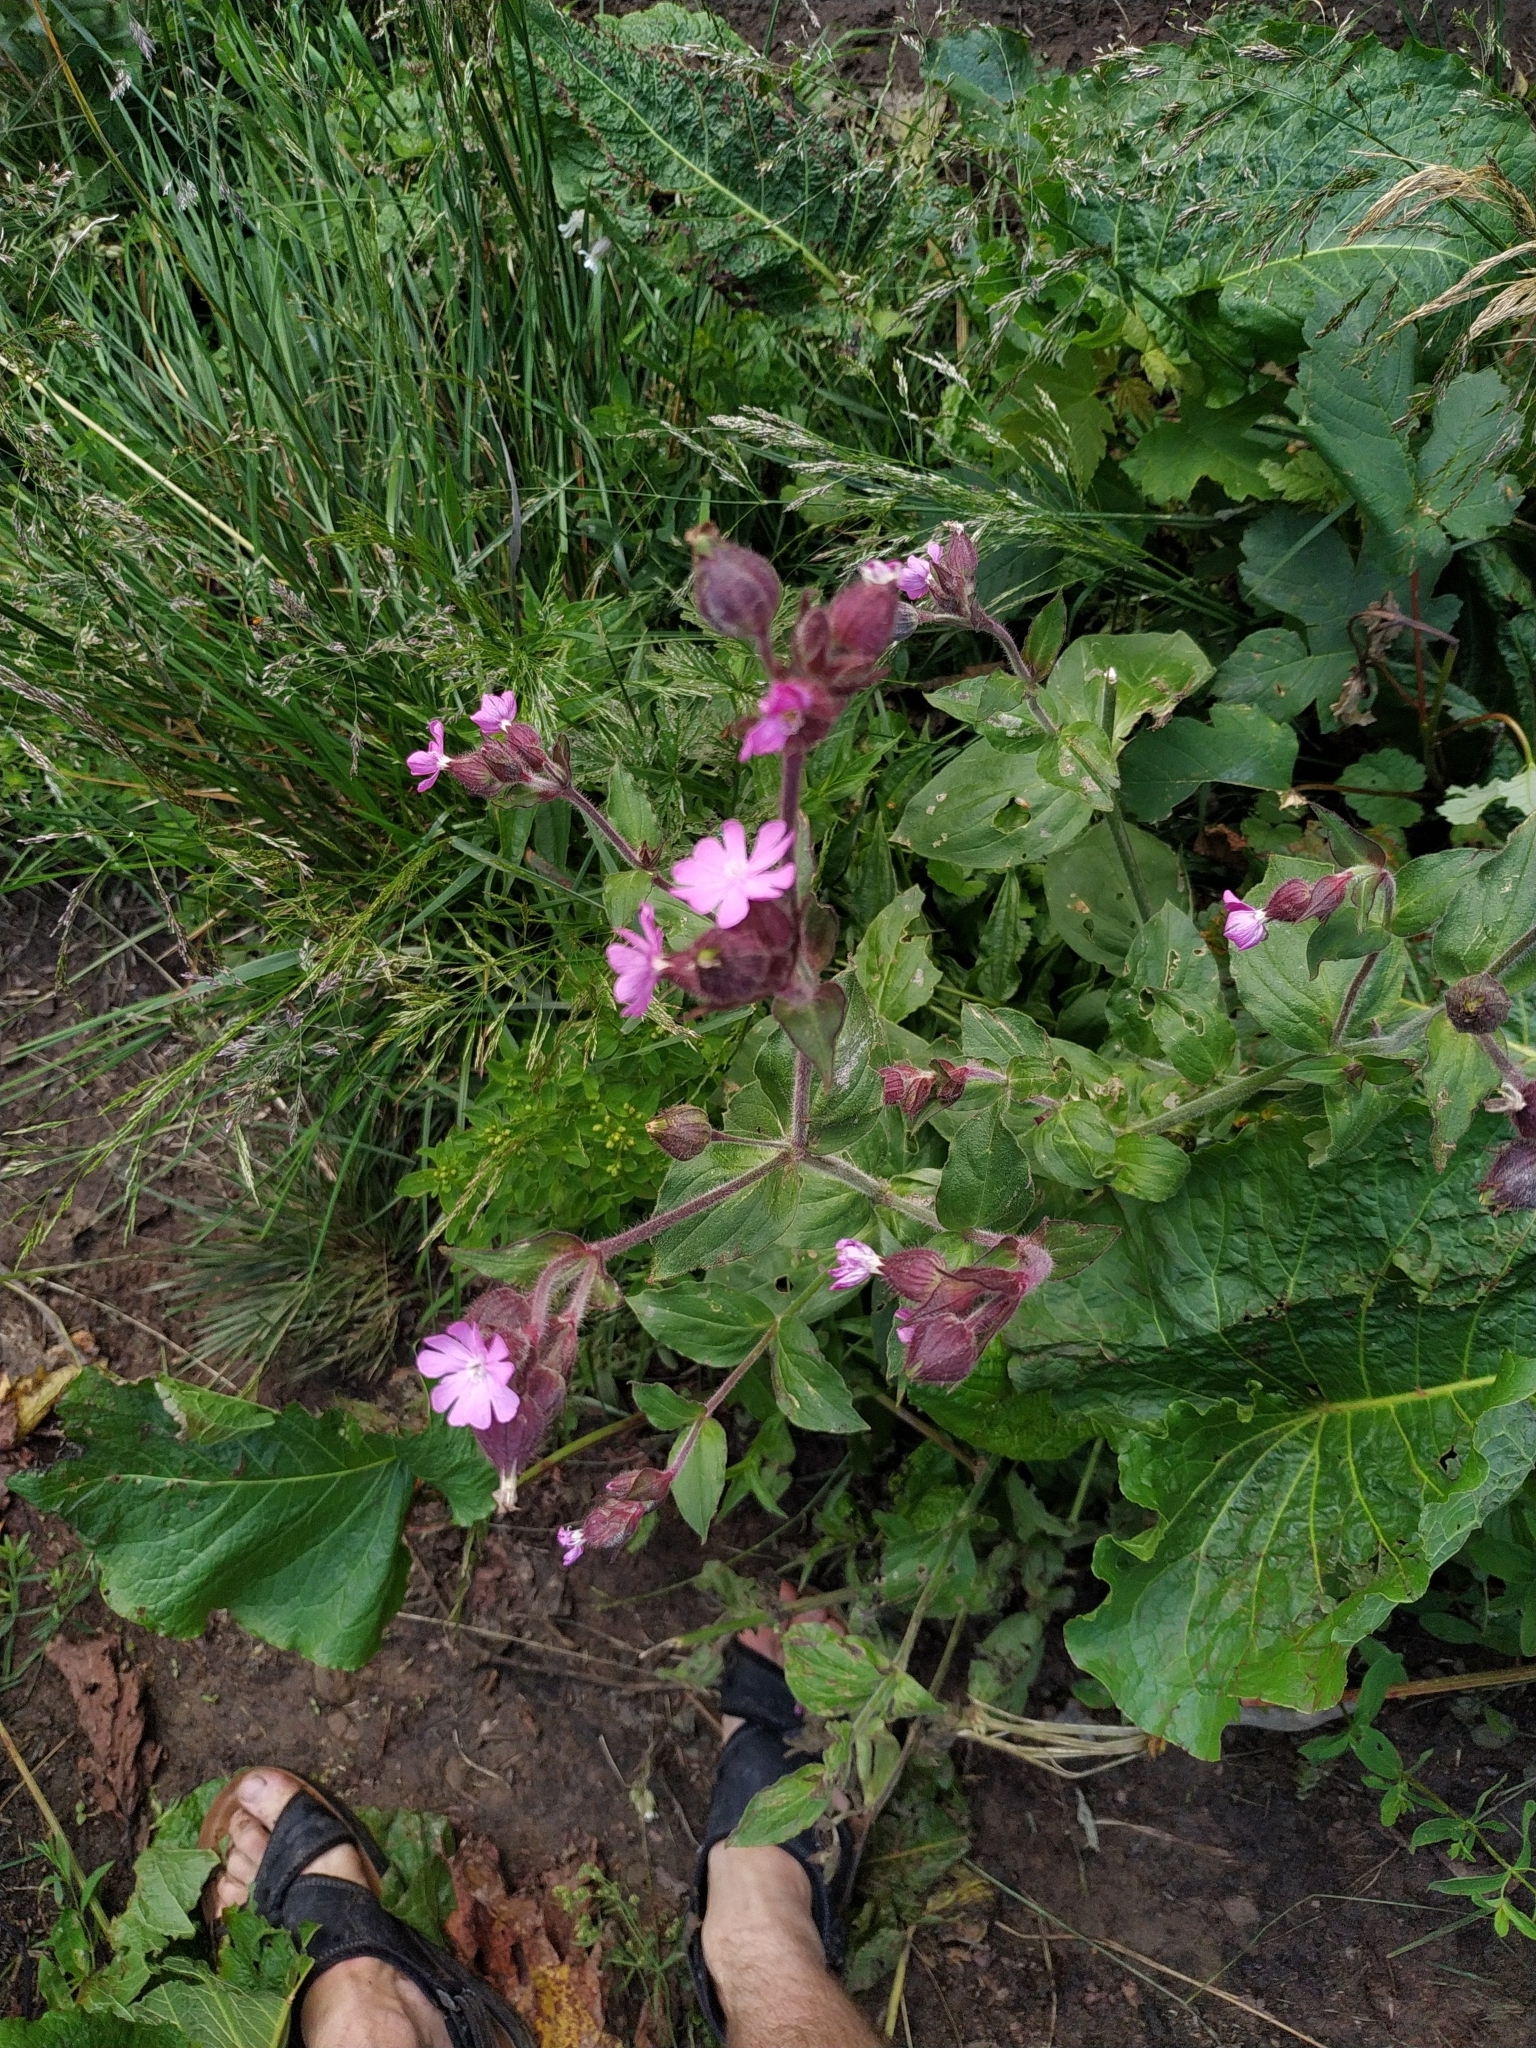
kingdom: Plantae
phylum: Tracheophyta
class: Magnoliopsida
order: Caryophyllales
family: Caryophyllaceae
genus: Silene
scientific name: Silene dioica
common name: Red campion
